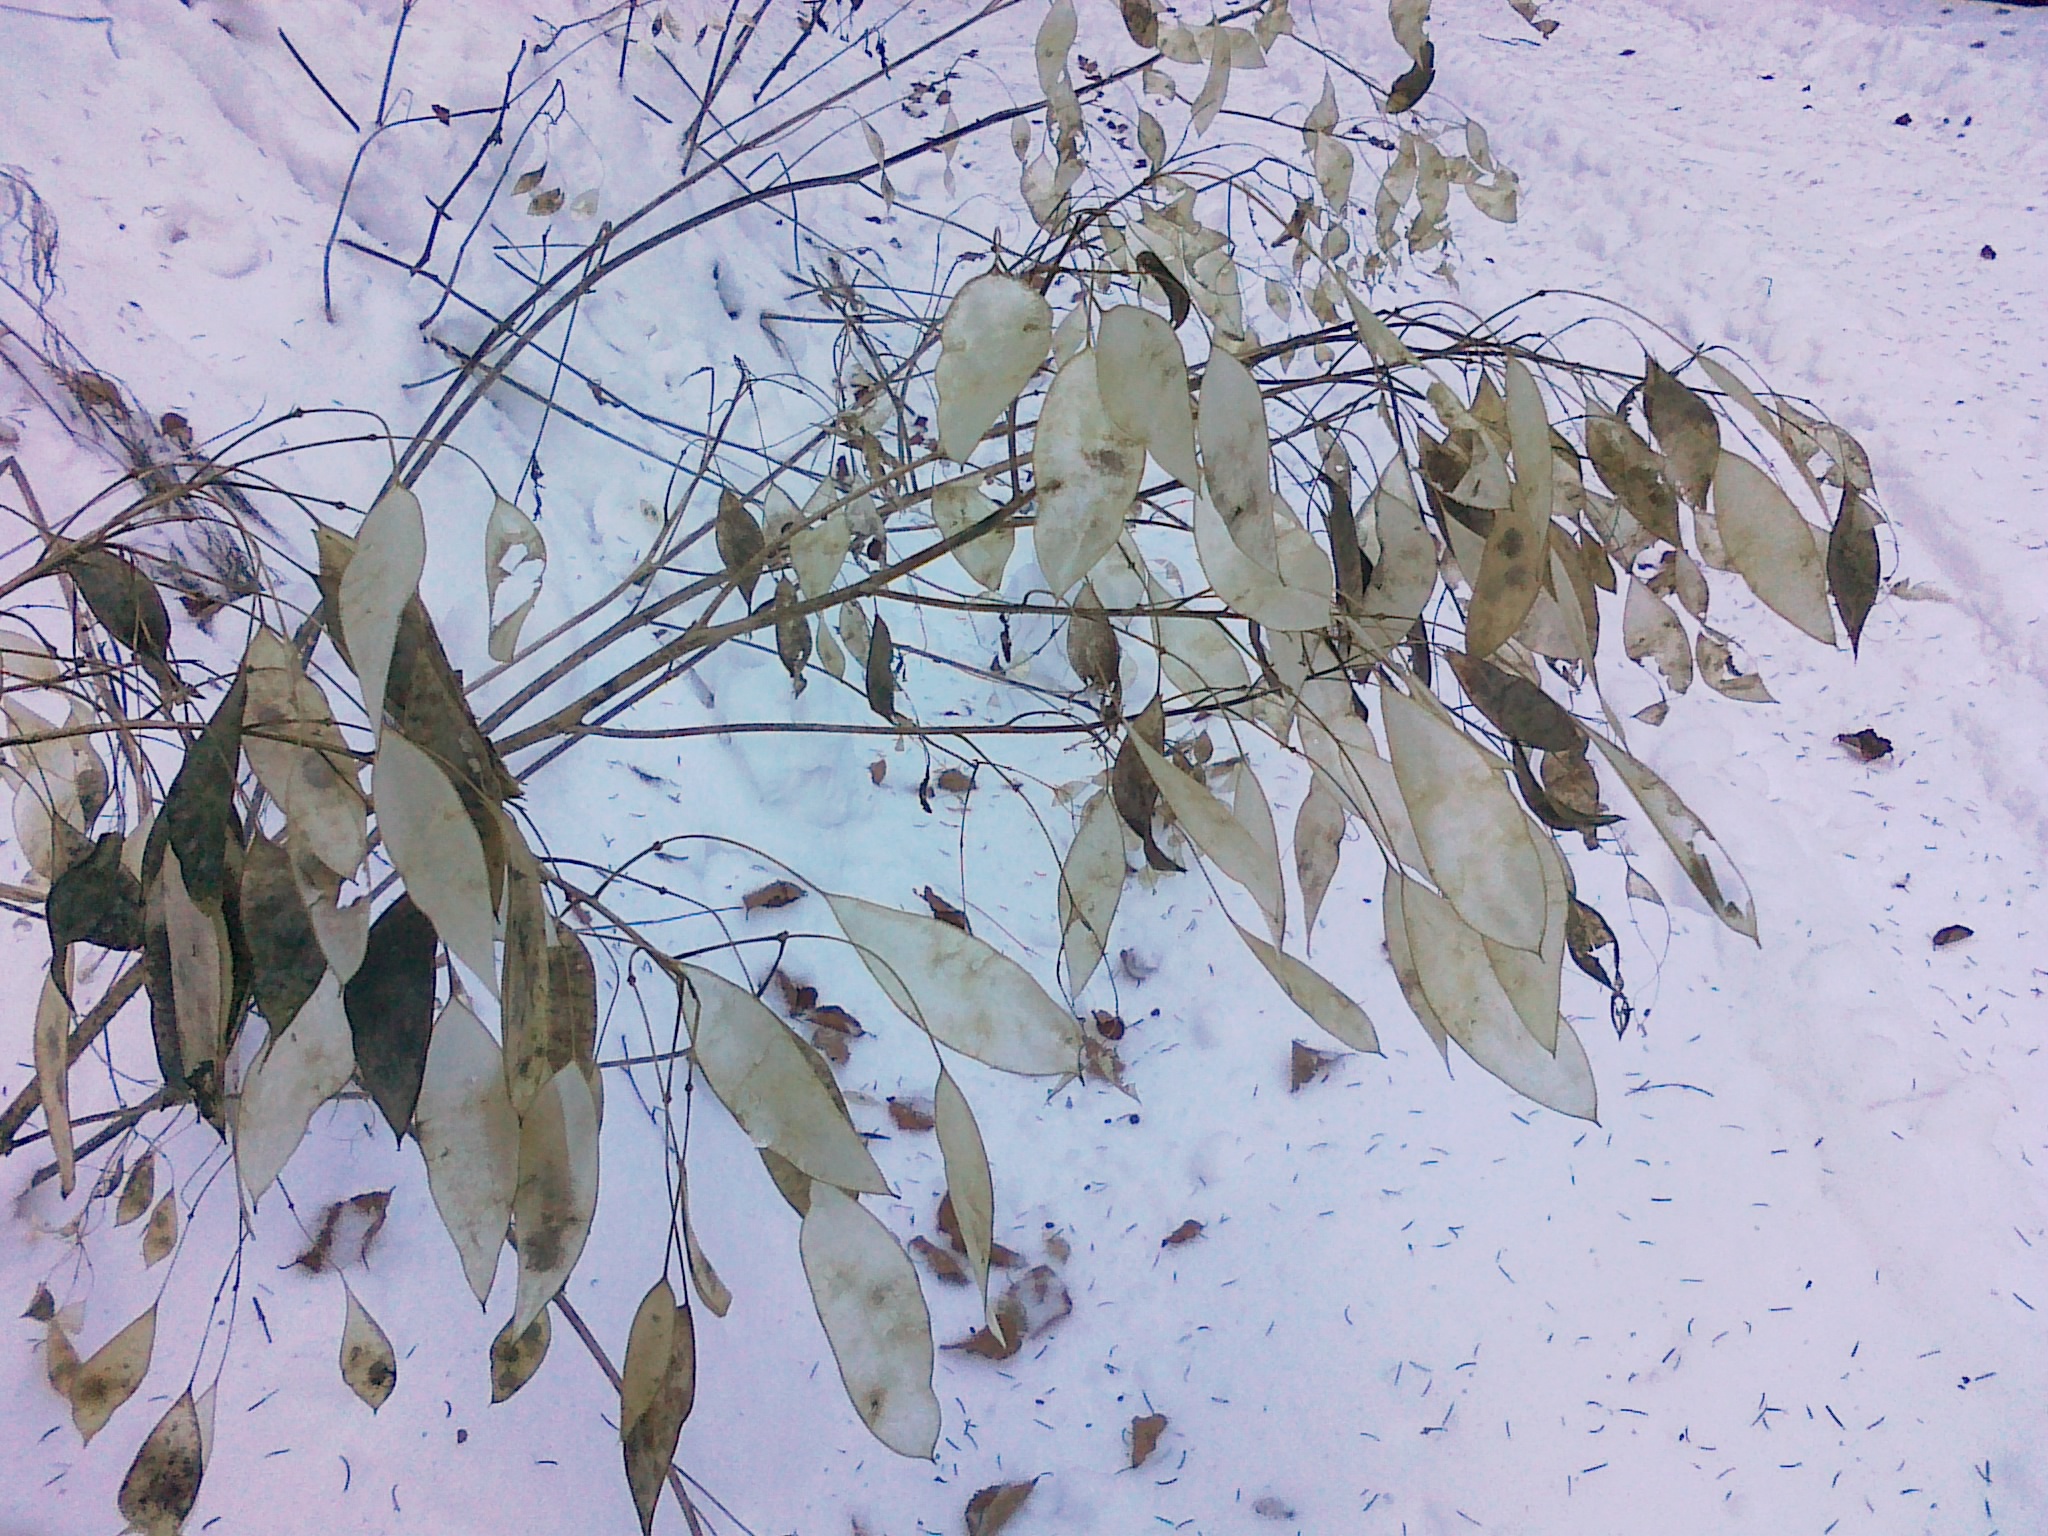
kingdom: Plantae
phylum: Tracheophyta
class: Magnoliopsida
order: Brassicales
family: Brassicaceae
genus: Lunaria
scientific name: Lunaria rediviva
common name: Perennial honesty
